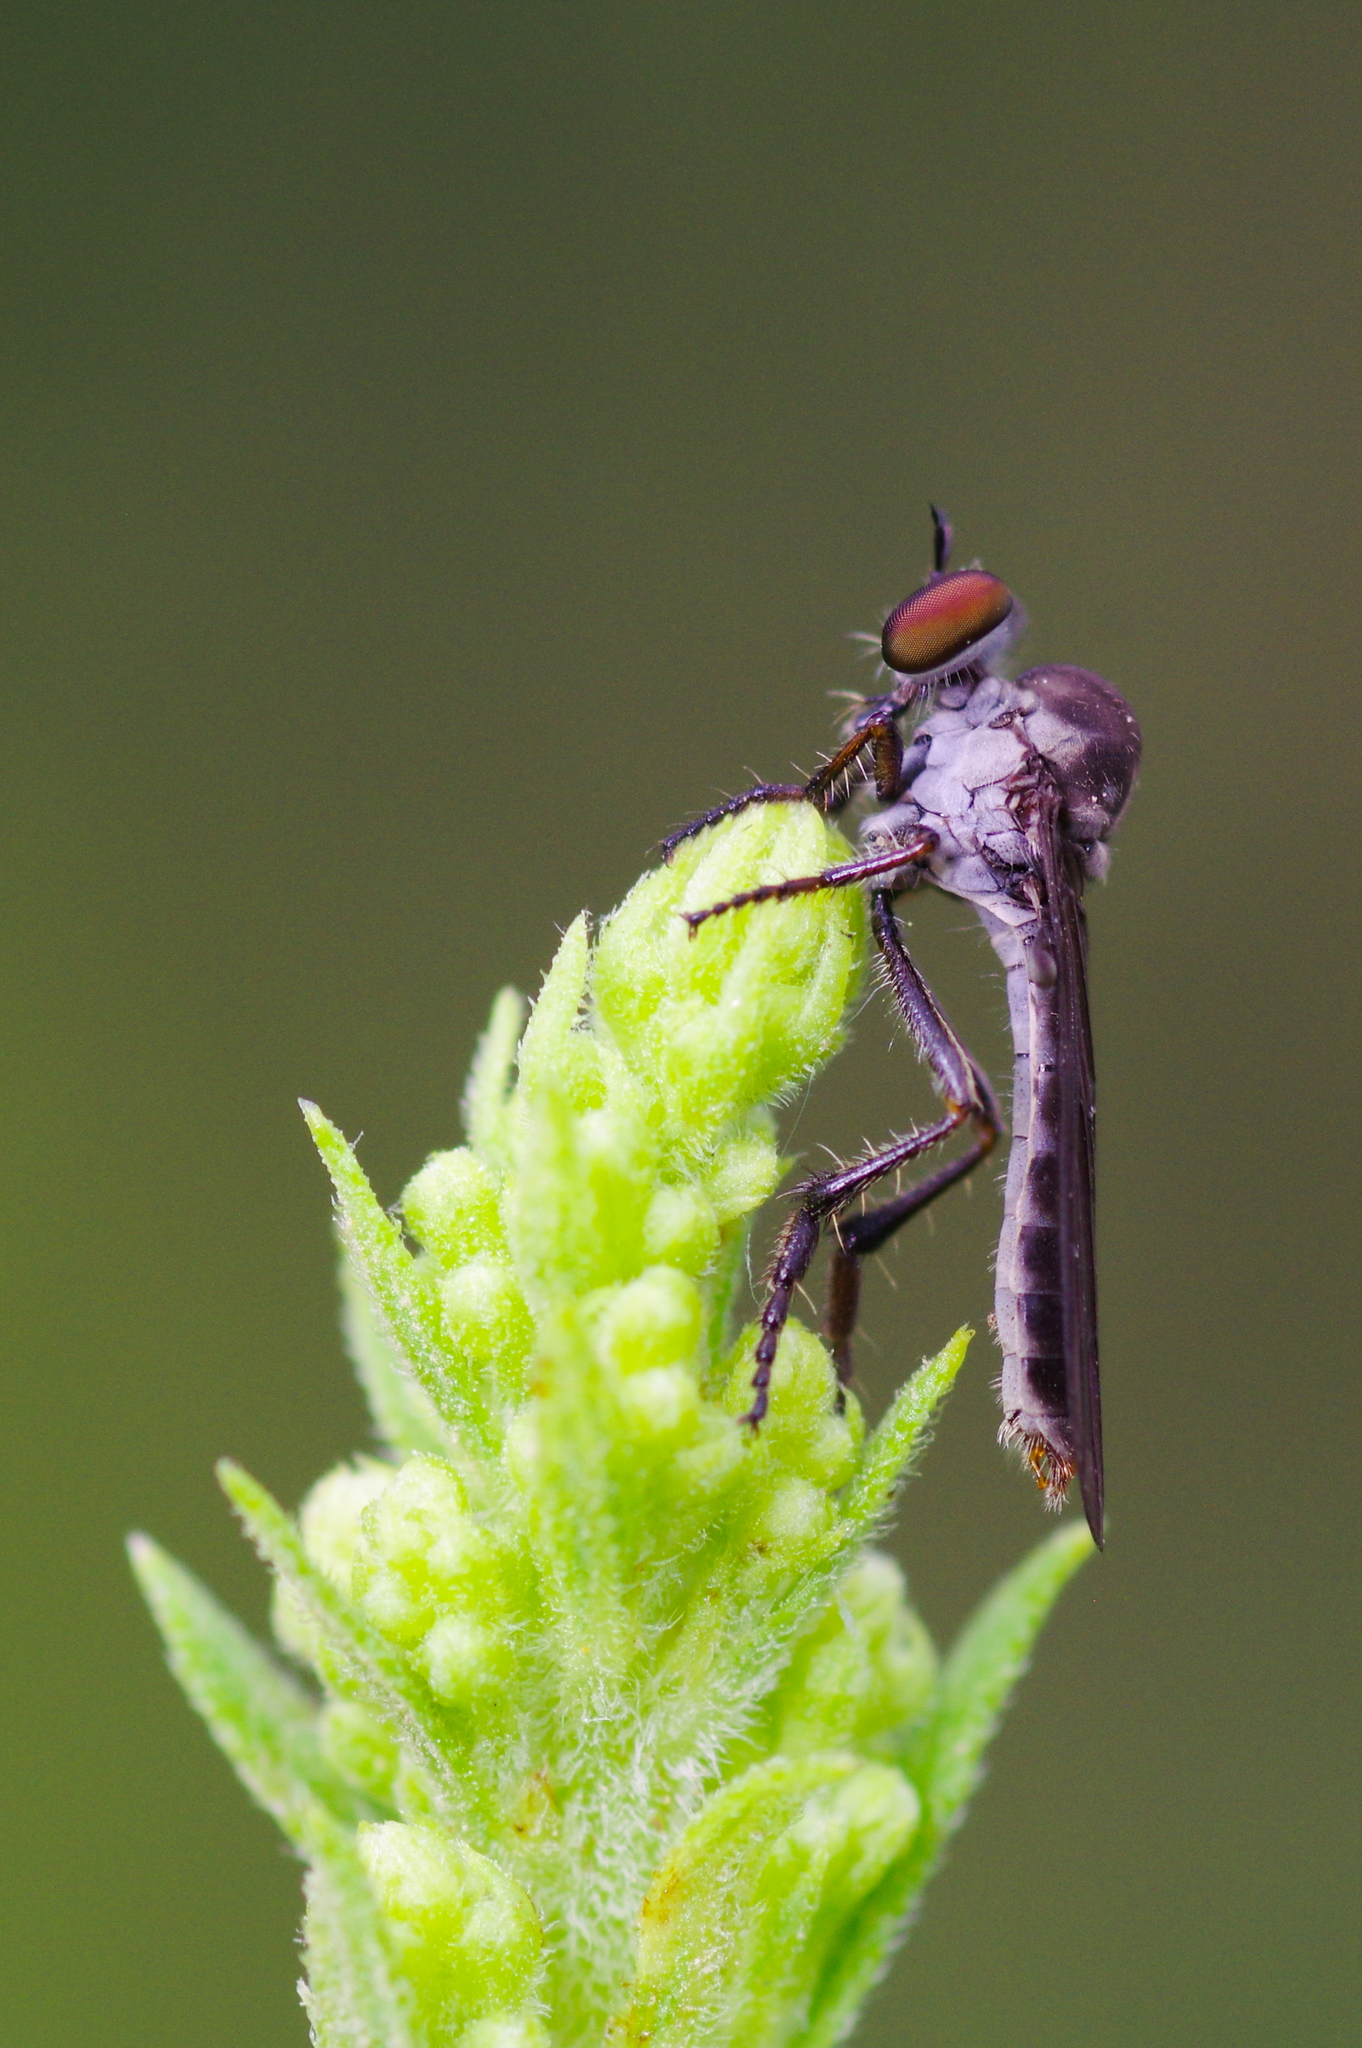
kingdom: Animalia
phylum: Arthropoda
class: Insecta
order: Diptera
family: Asilidae
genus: Holcocephala
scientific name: Holcocephala calva
